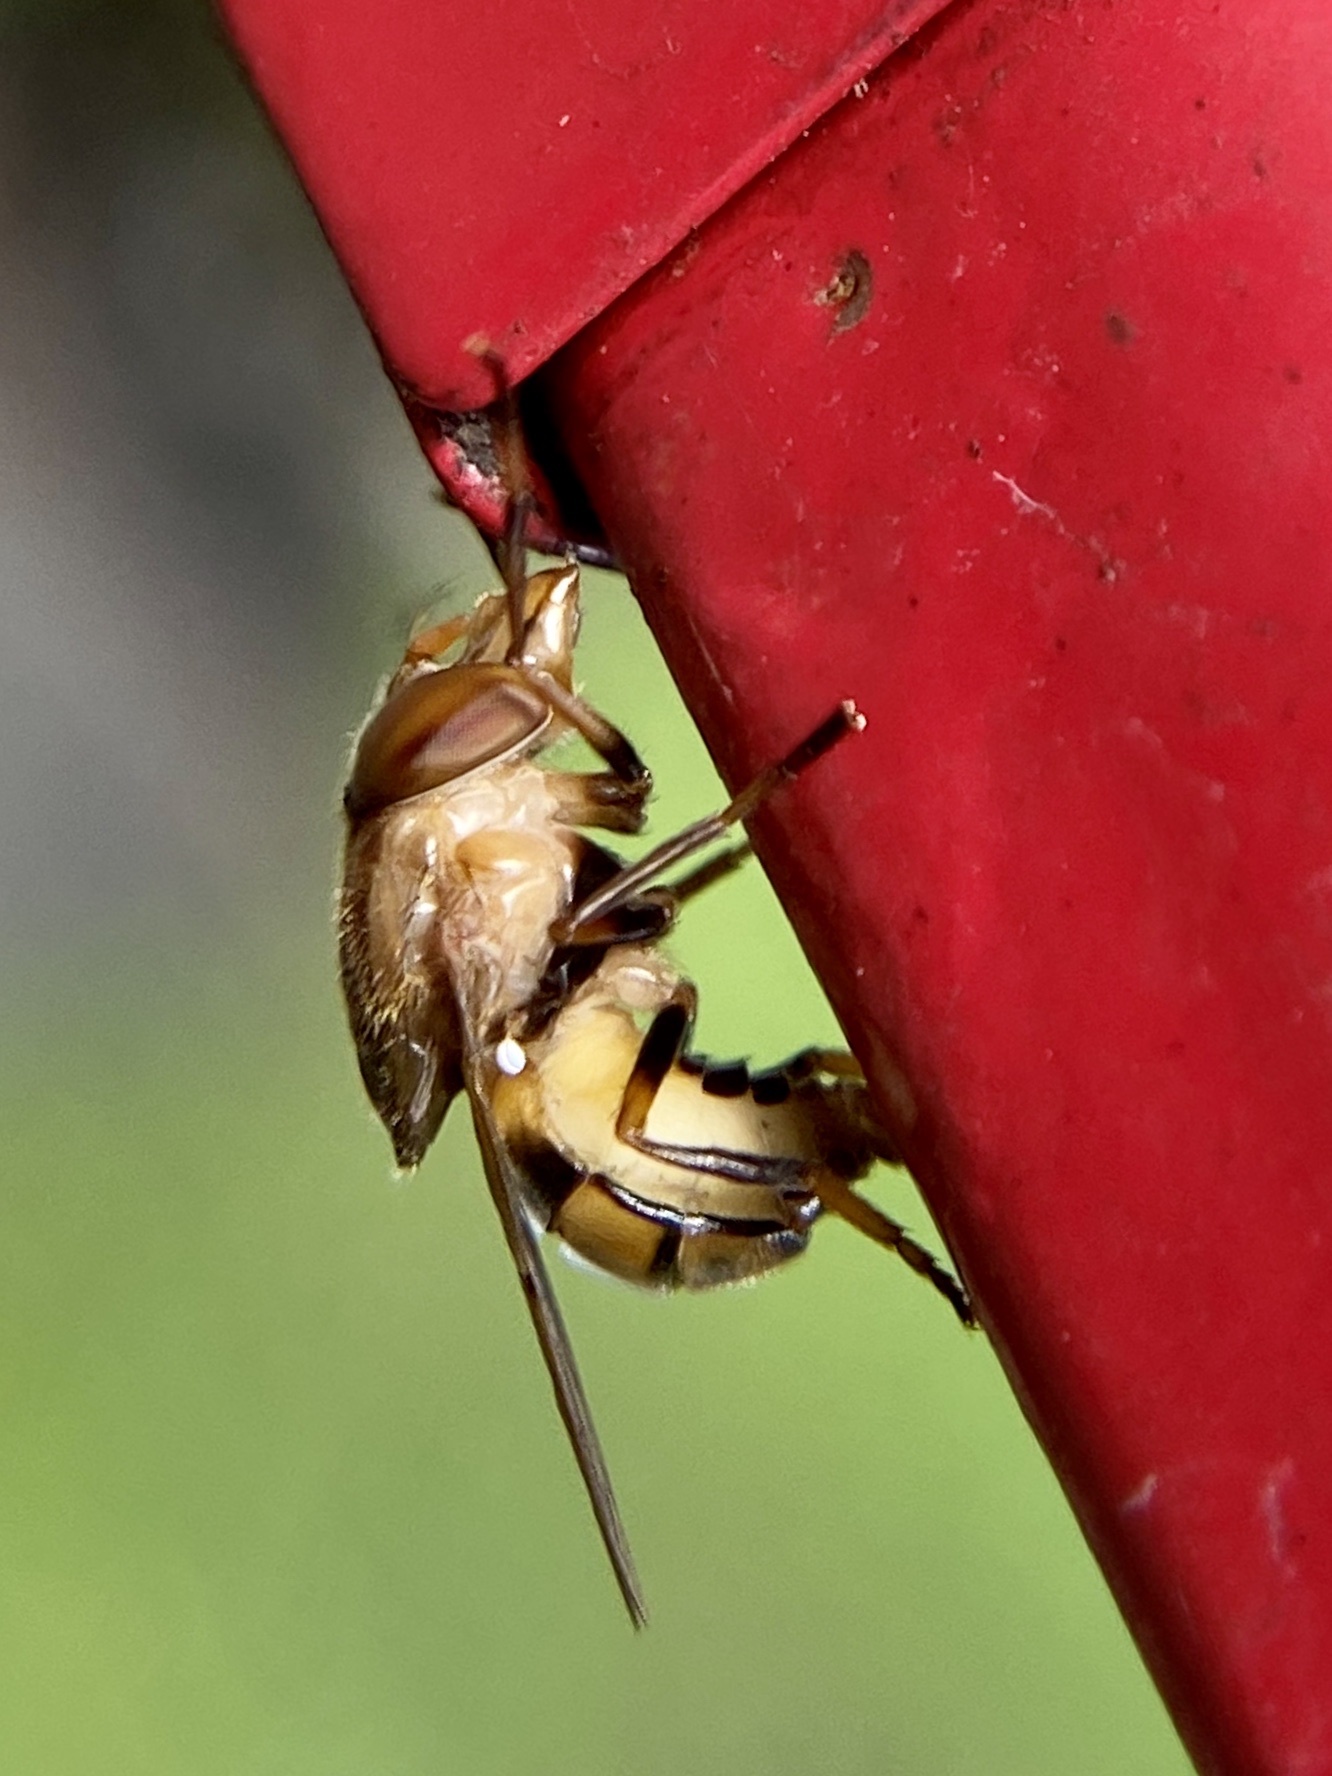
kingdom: Animalia
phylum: Arthropoda
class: Insecta
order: Diptera
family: Syrphidae
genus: Copestylum
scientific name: Copestylum
